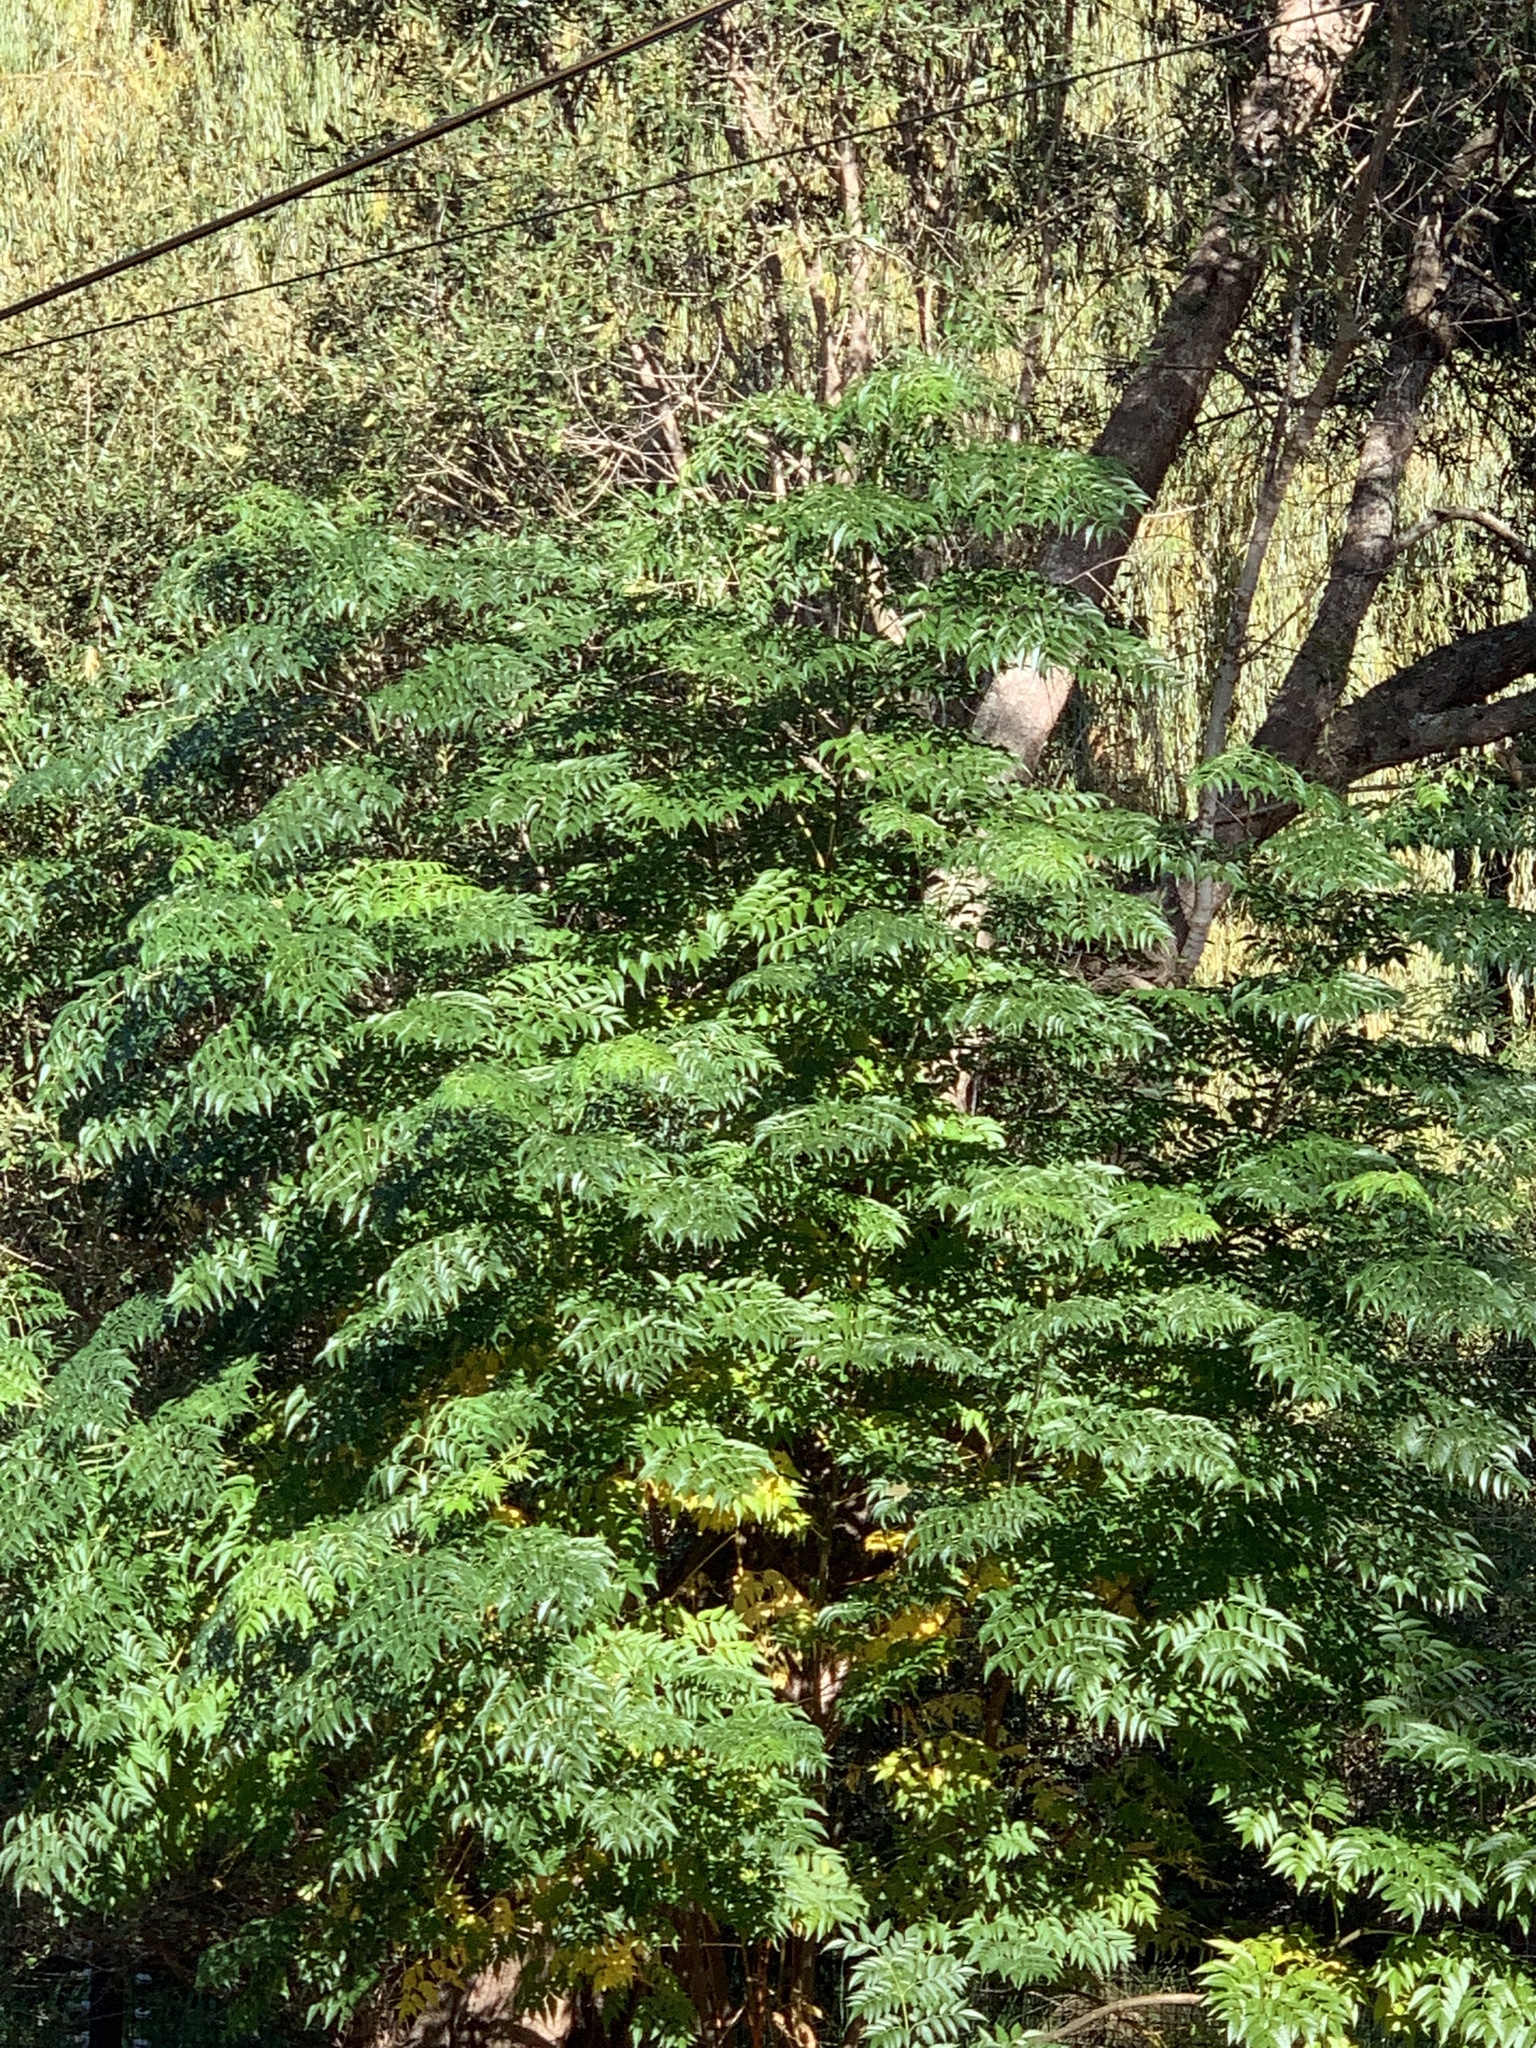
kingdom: Plantae
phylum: Tracheophyta
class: Magnoliopsida
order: Sapindales
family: Meliaceae
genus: Melia
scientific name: Melia azedarach
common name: Chinaberrytree
